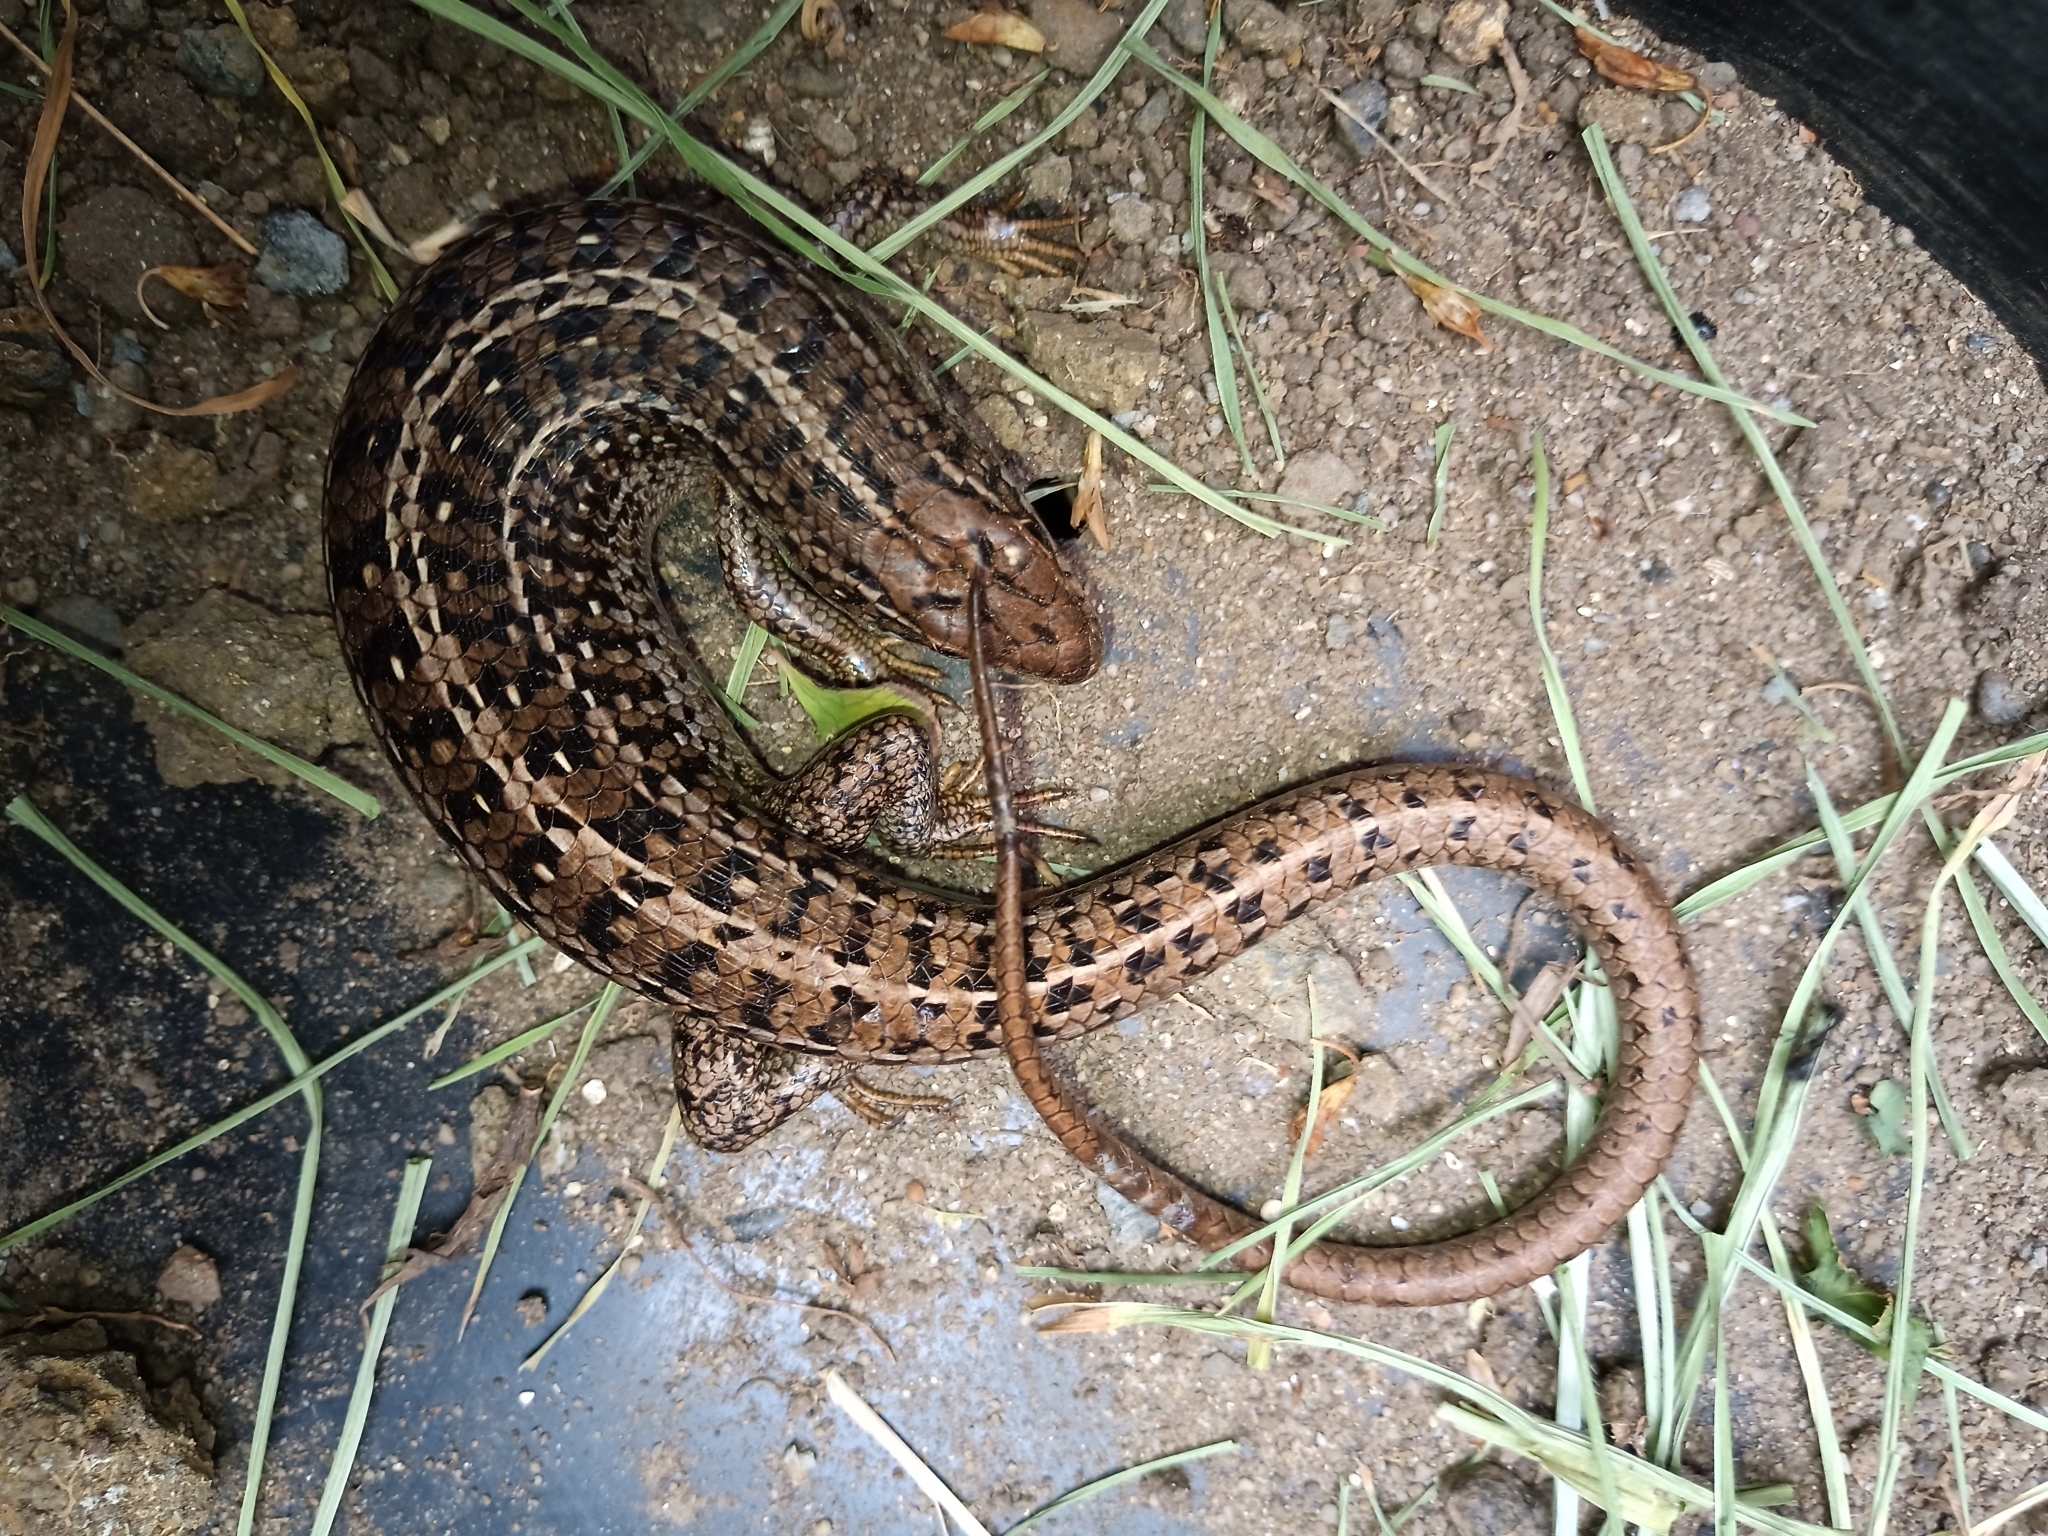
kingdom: Animalia
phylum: Chordata
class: Squamata
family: Scincidae
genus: Trachylepis
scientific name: Trachylepis capensis
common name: Cape skink
